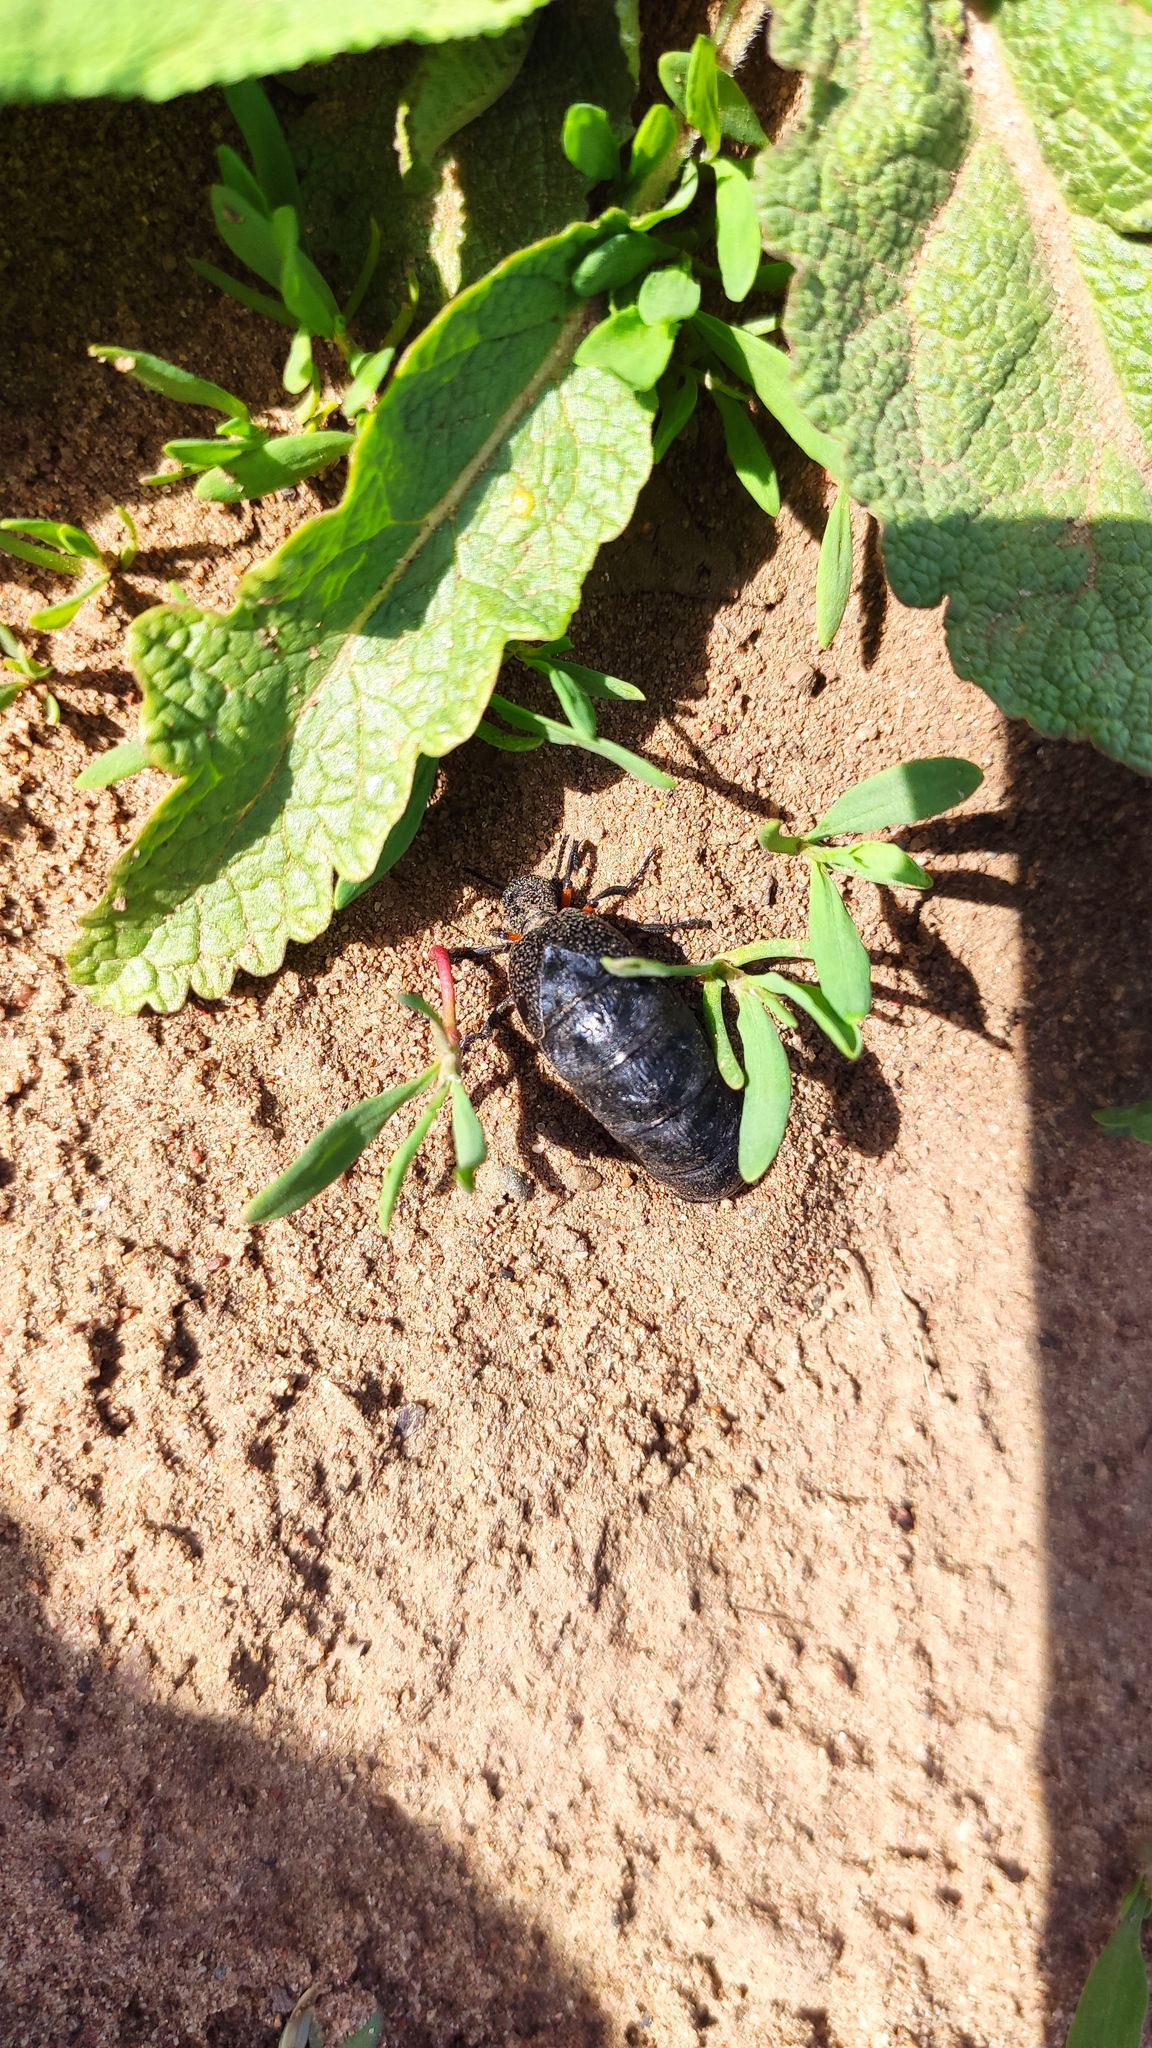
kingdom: Animalia
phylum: Arthropoda
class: Insecta
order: Coleoptera
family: Meloidae
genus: Meloe
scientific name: Meloe erythrocnemus
